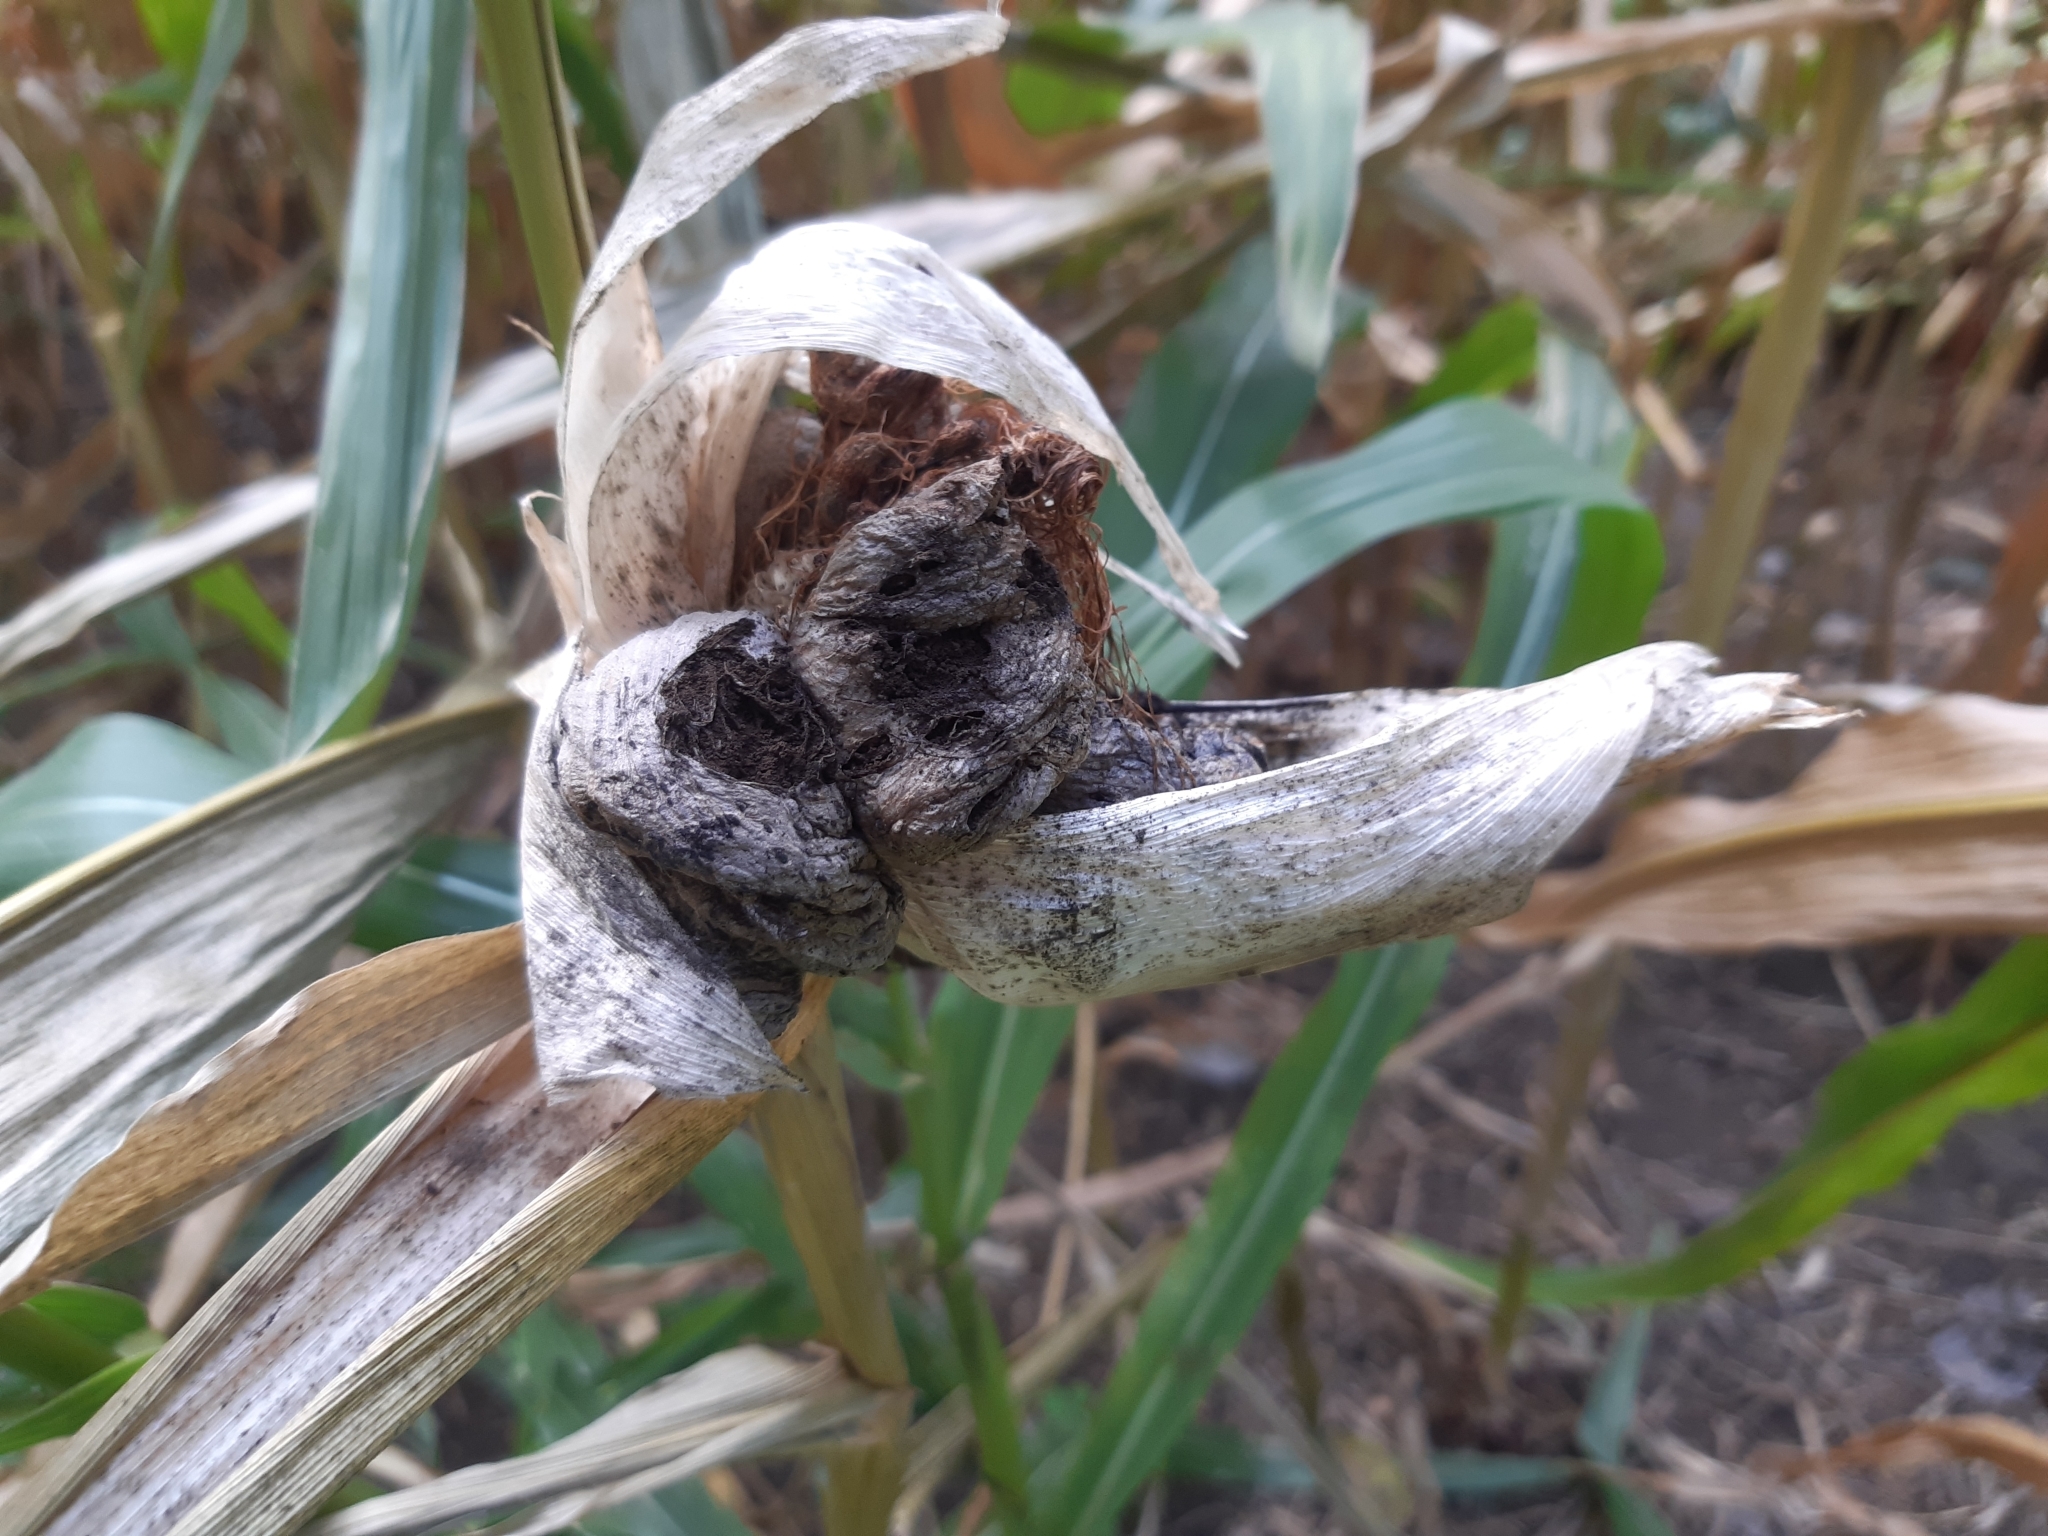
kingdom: Fungi
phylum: Basidiomycota
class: Ustilaginomycetes
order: Ustilaginales
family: Ustilaginaceae
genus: Mycosarcoma
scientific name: Mycosarcoma maydis
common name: Corn smut
